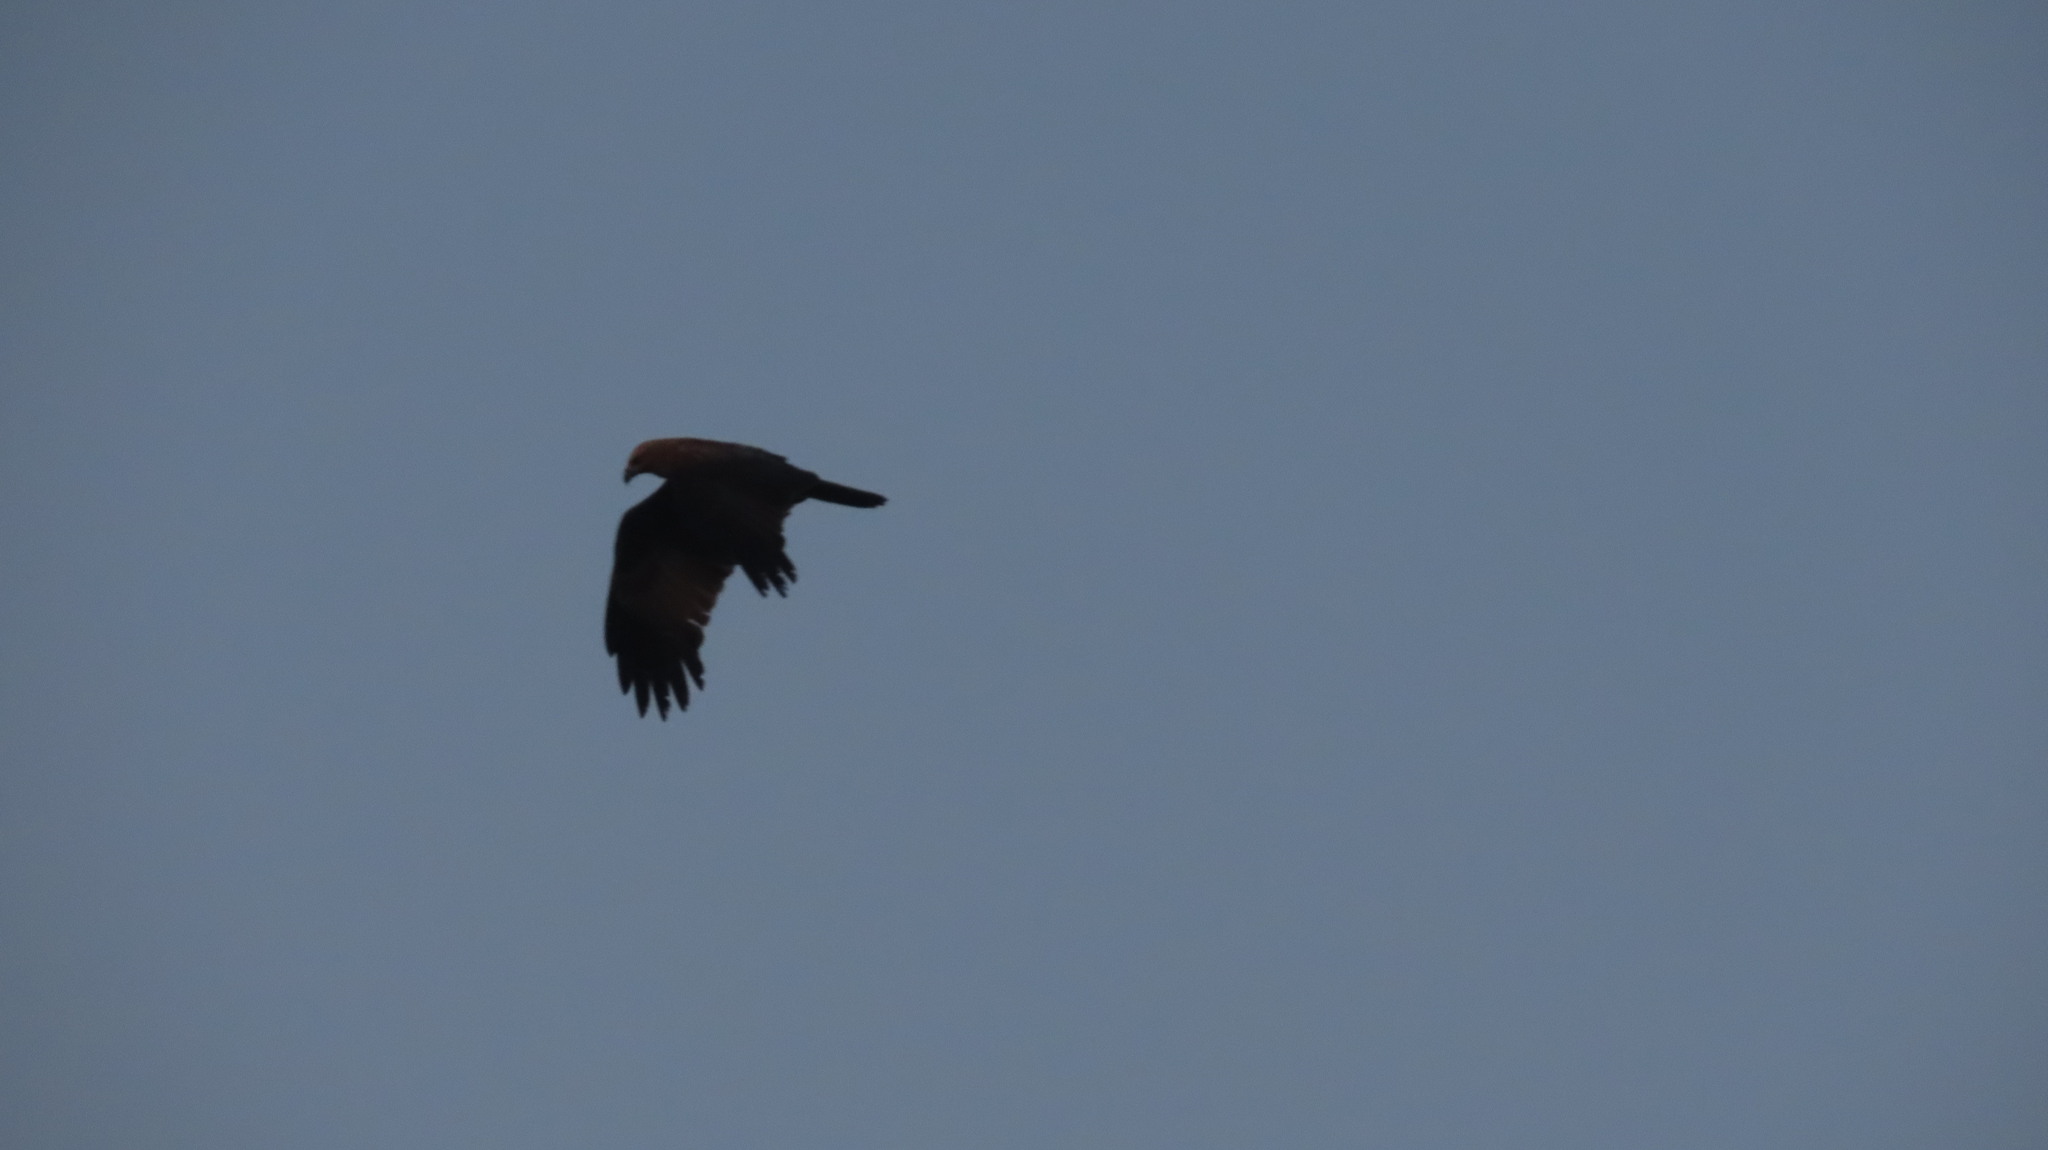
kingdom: Animalia
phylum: Chordata
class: Aves
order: Accipitriformes
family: Accipitridae
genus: Haliastur
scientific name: Haliastur indus
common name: Brahminy kite
